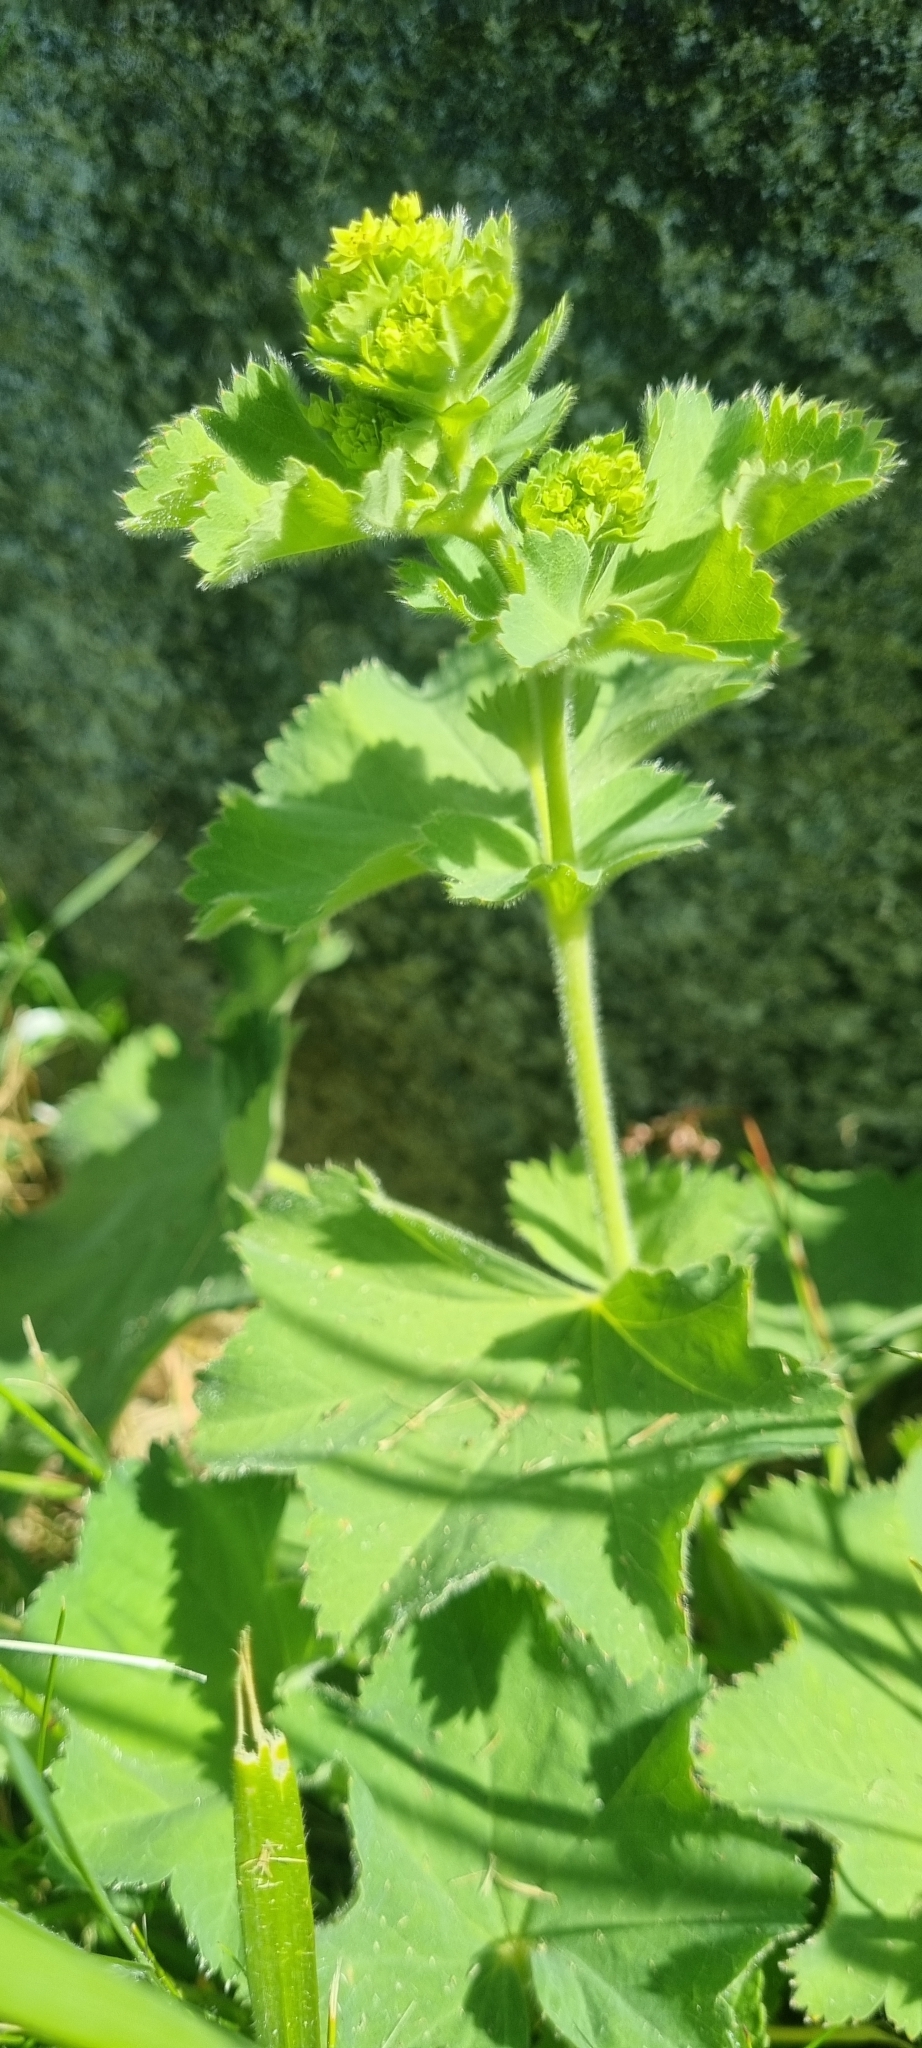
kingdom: Plantae
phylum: Tracheophyta
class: Magnoliopsida
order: Rosales
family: Rosaceae
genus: Alchemilla
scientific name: Alchemilla mollis
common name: Lady's-mantle
